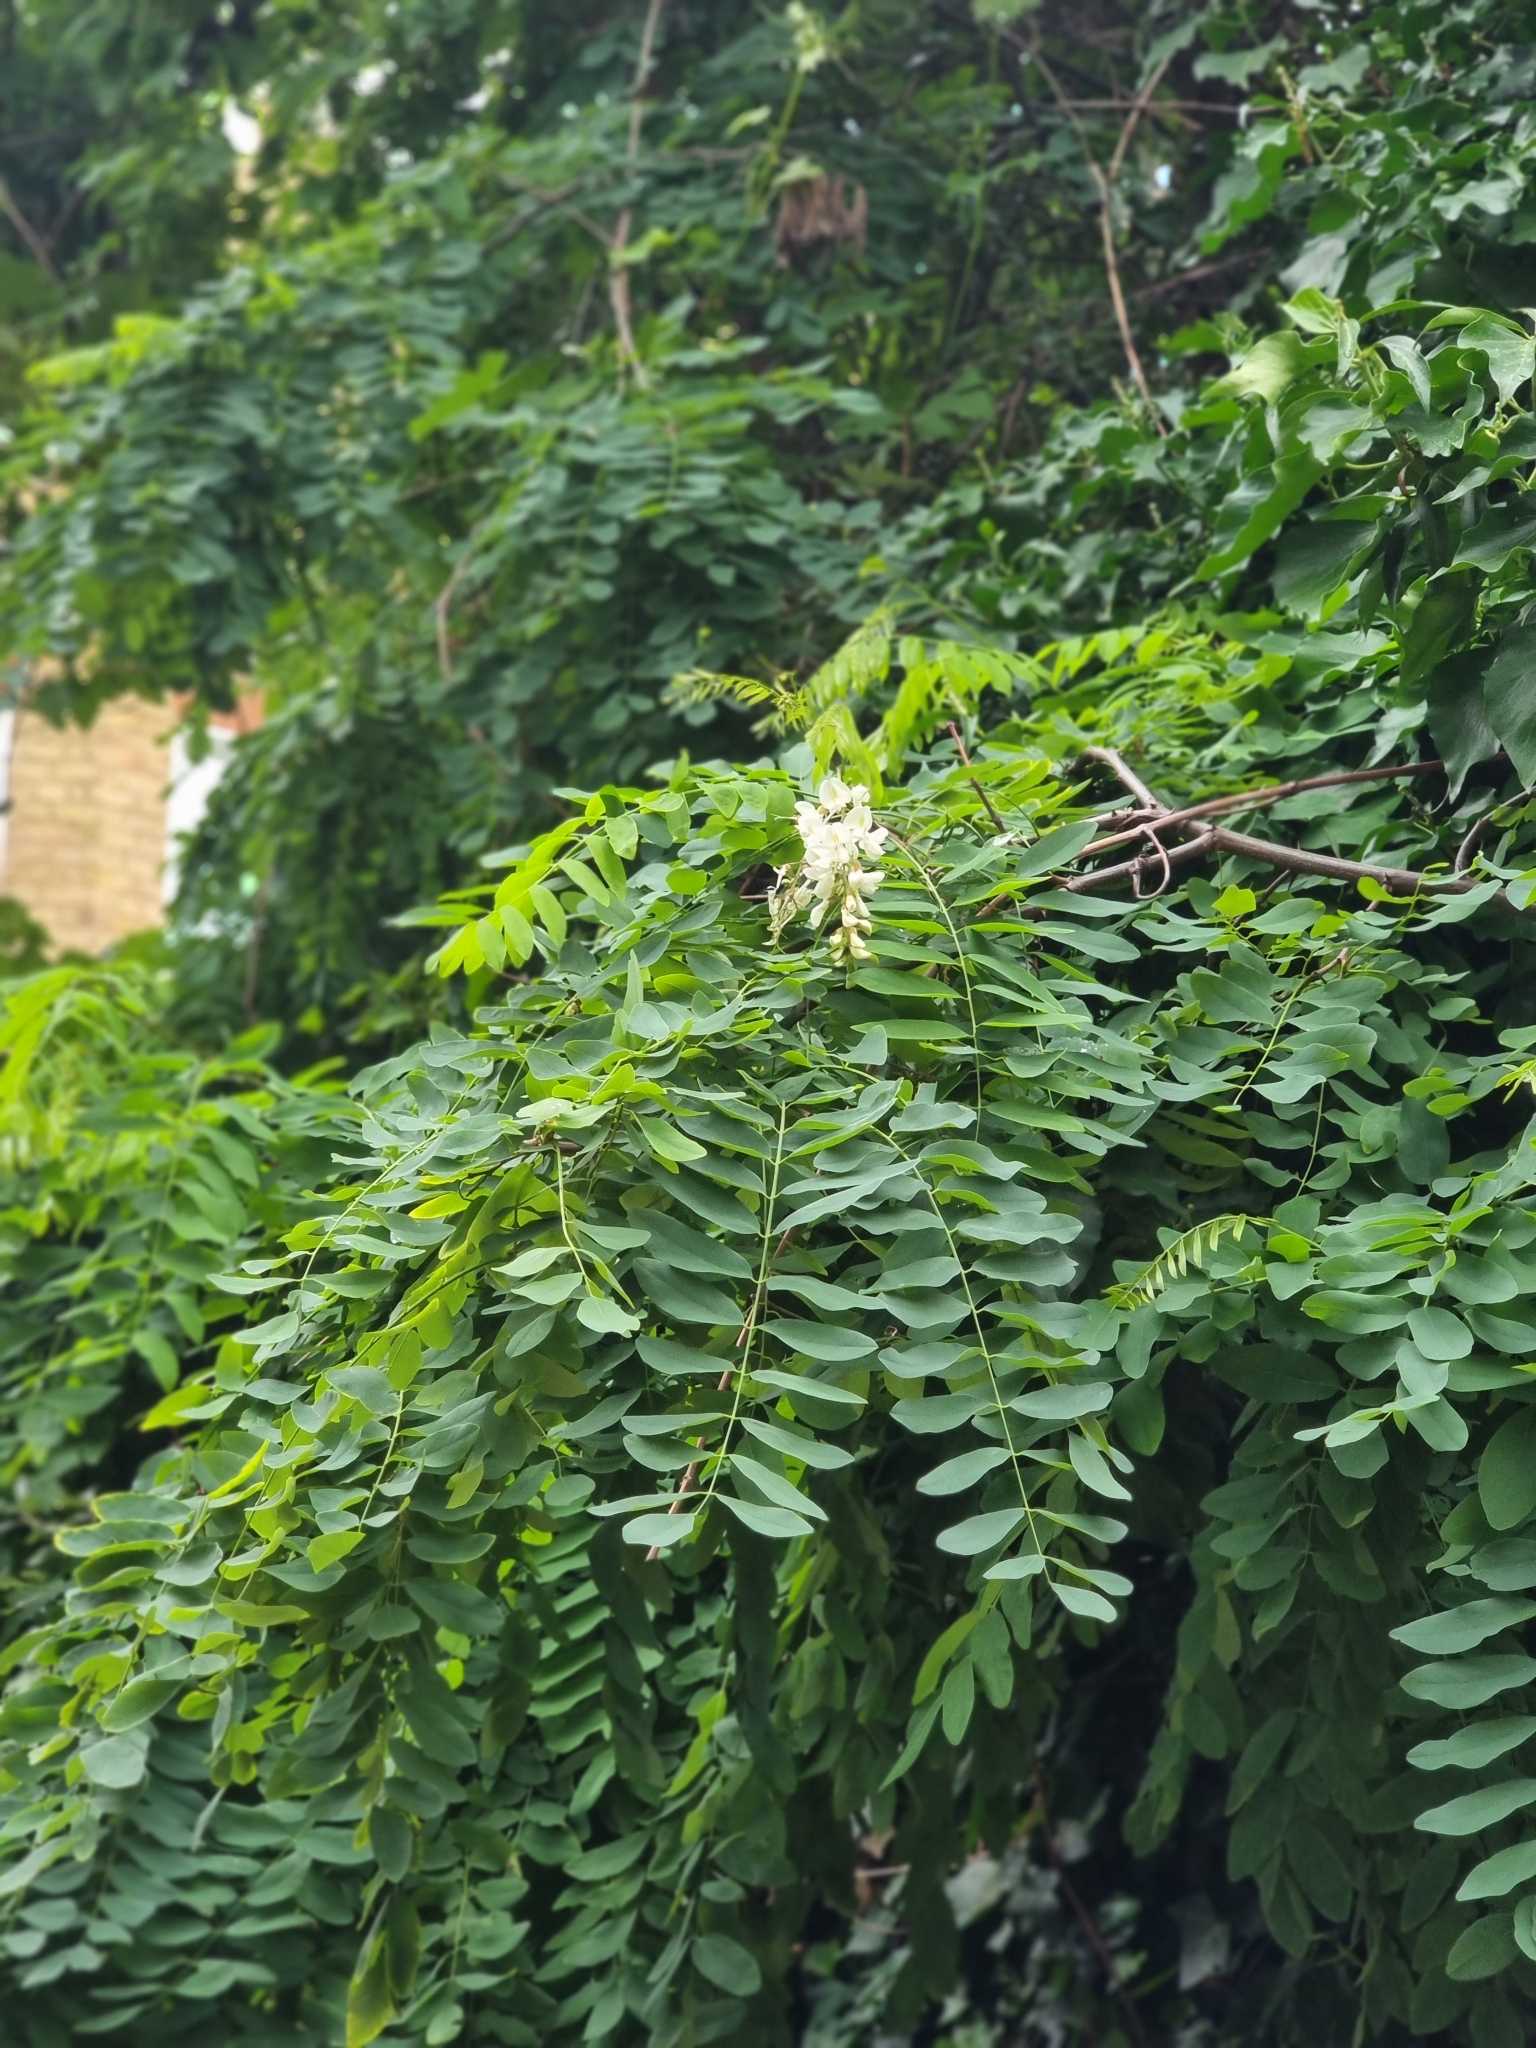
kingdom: Plantae
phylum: Tracheophyta
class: Magnoliopsida
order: Fabales
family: Fabaceae
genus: Robinia
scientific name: Robinia pseudoacacia
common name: Black locust
